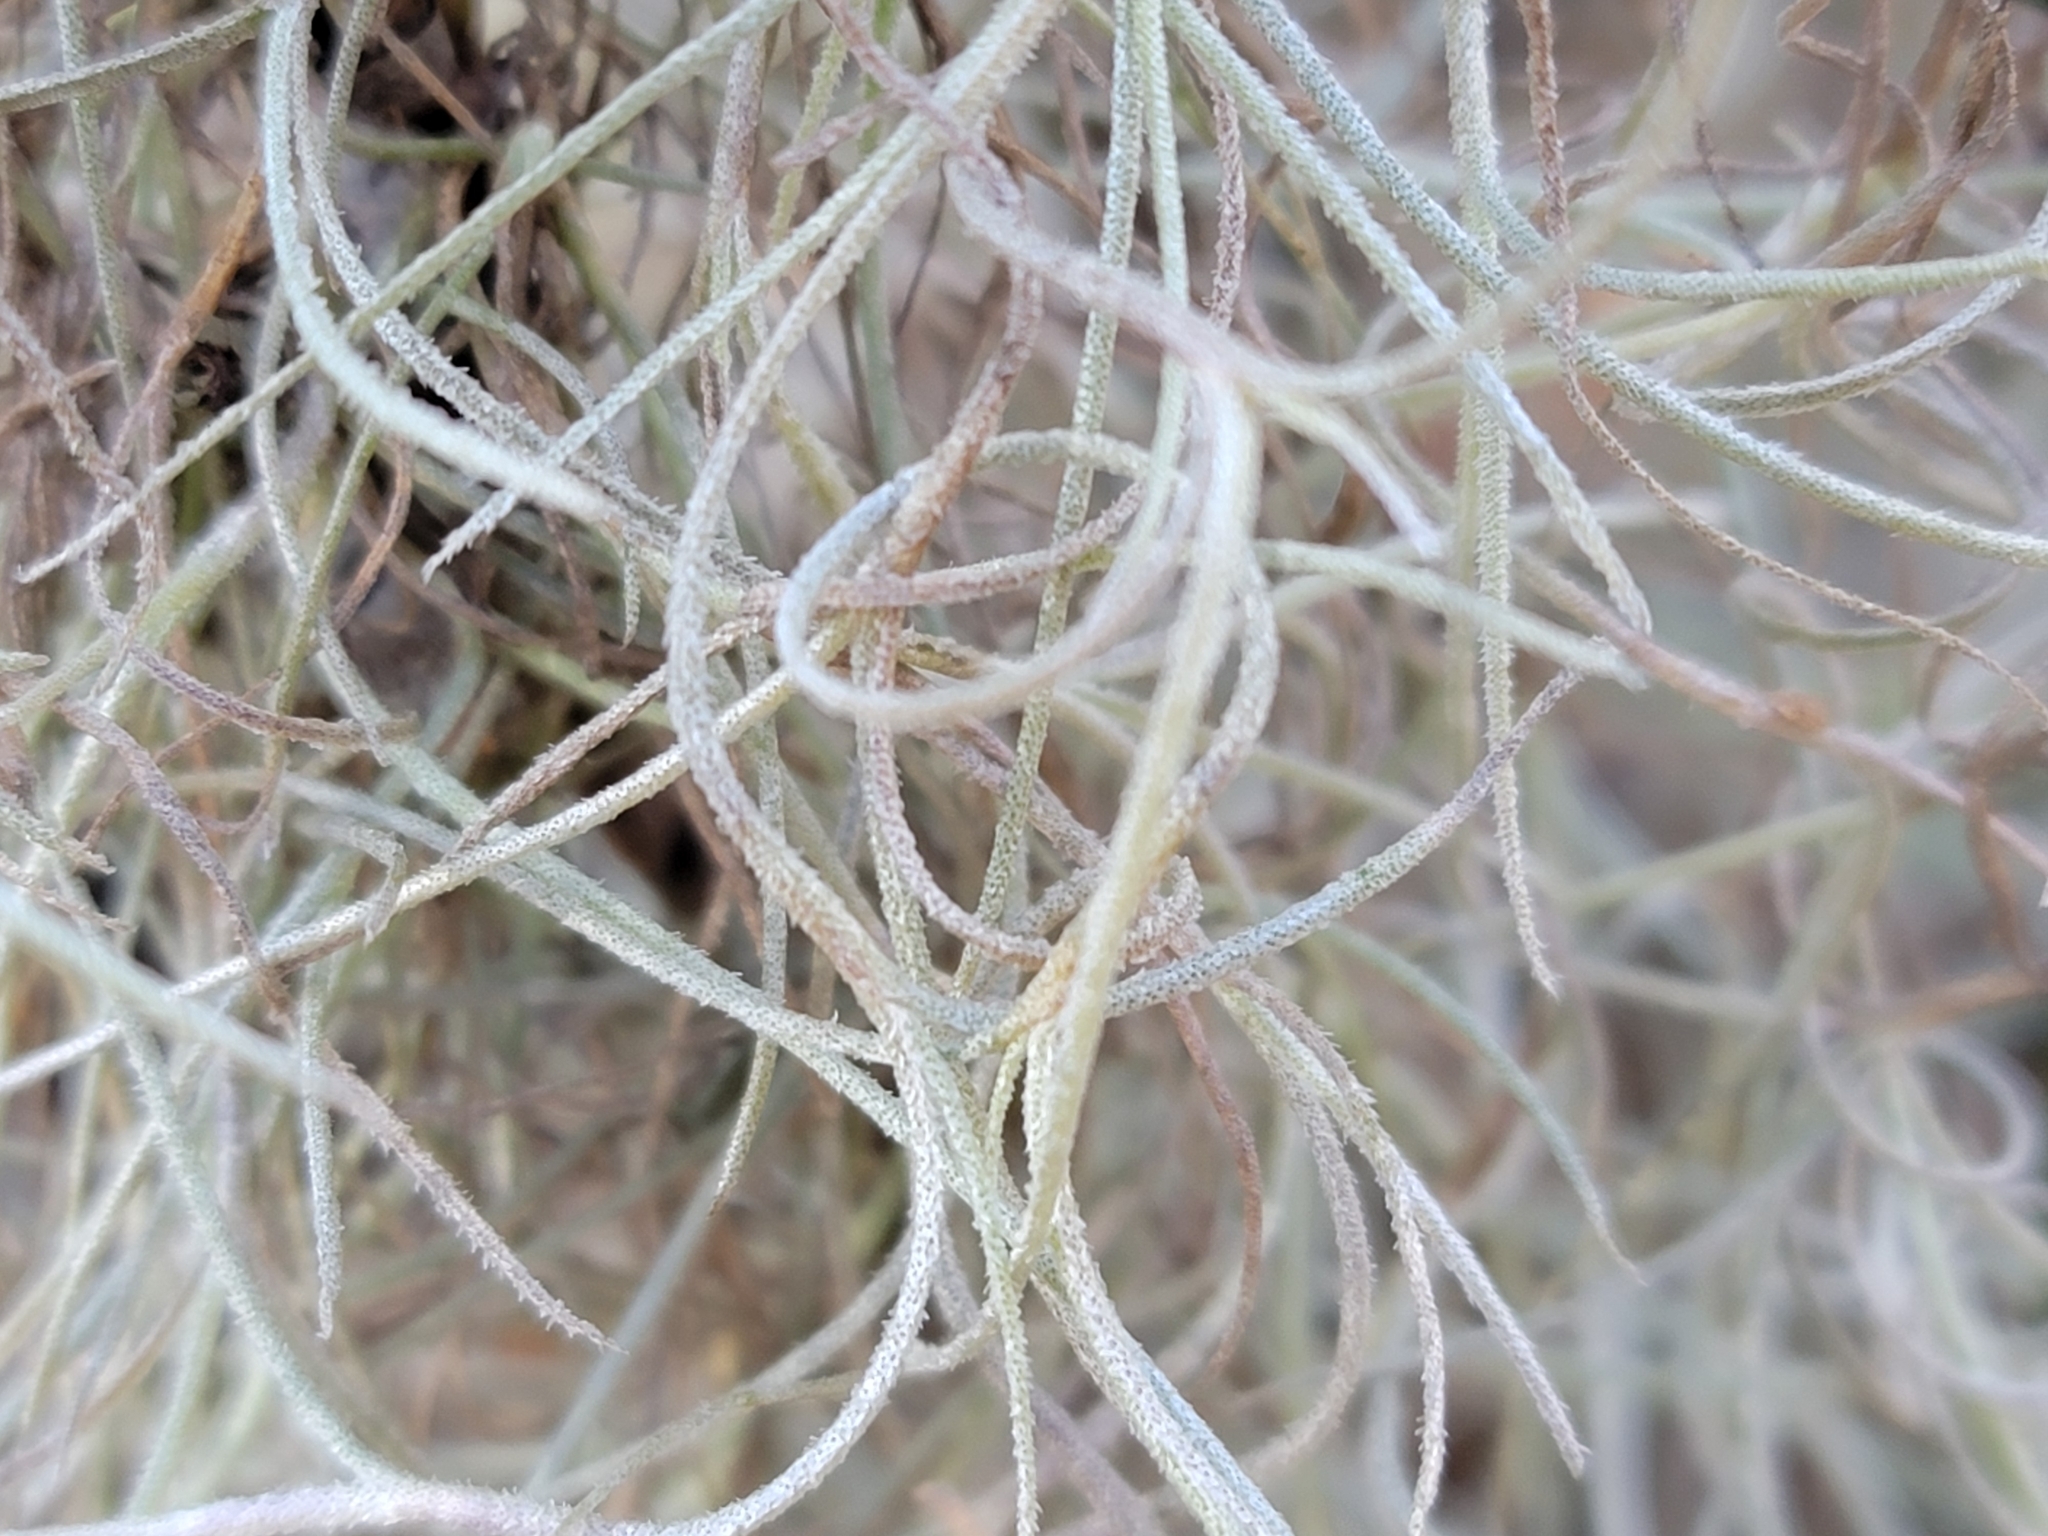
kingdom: Plantae
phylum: Tracheophyta
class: Liliopsida
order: Poales
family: Bromeliaceae
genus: Tillandsia
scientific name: Tillandsia usneoides
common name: Spanish moss
